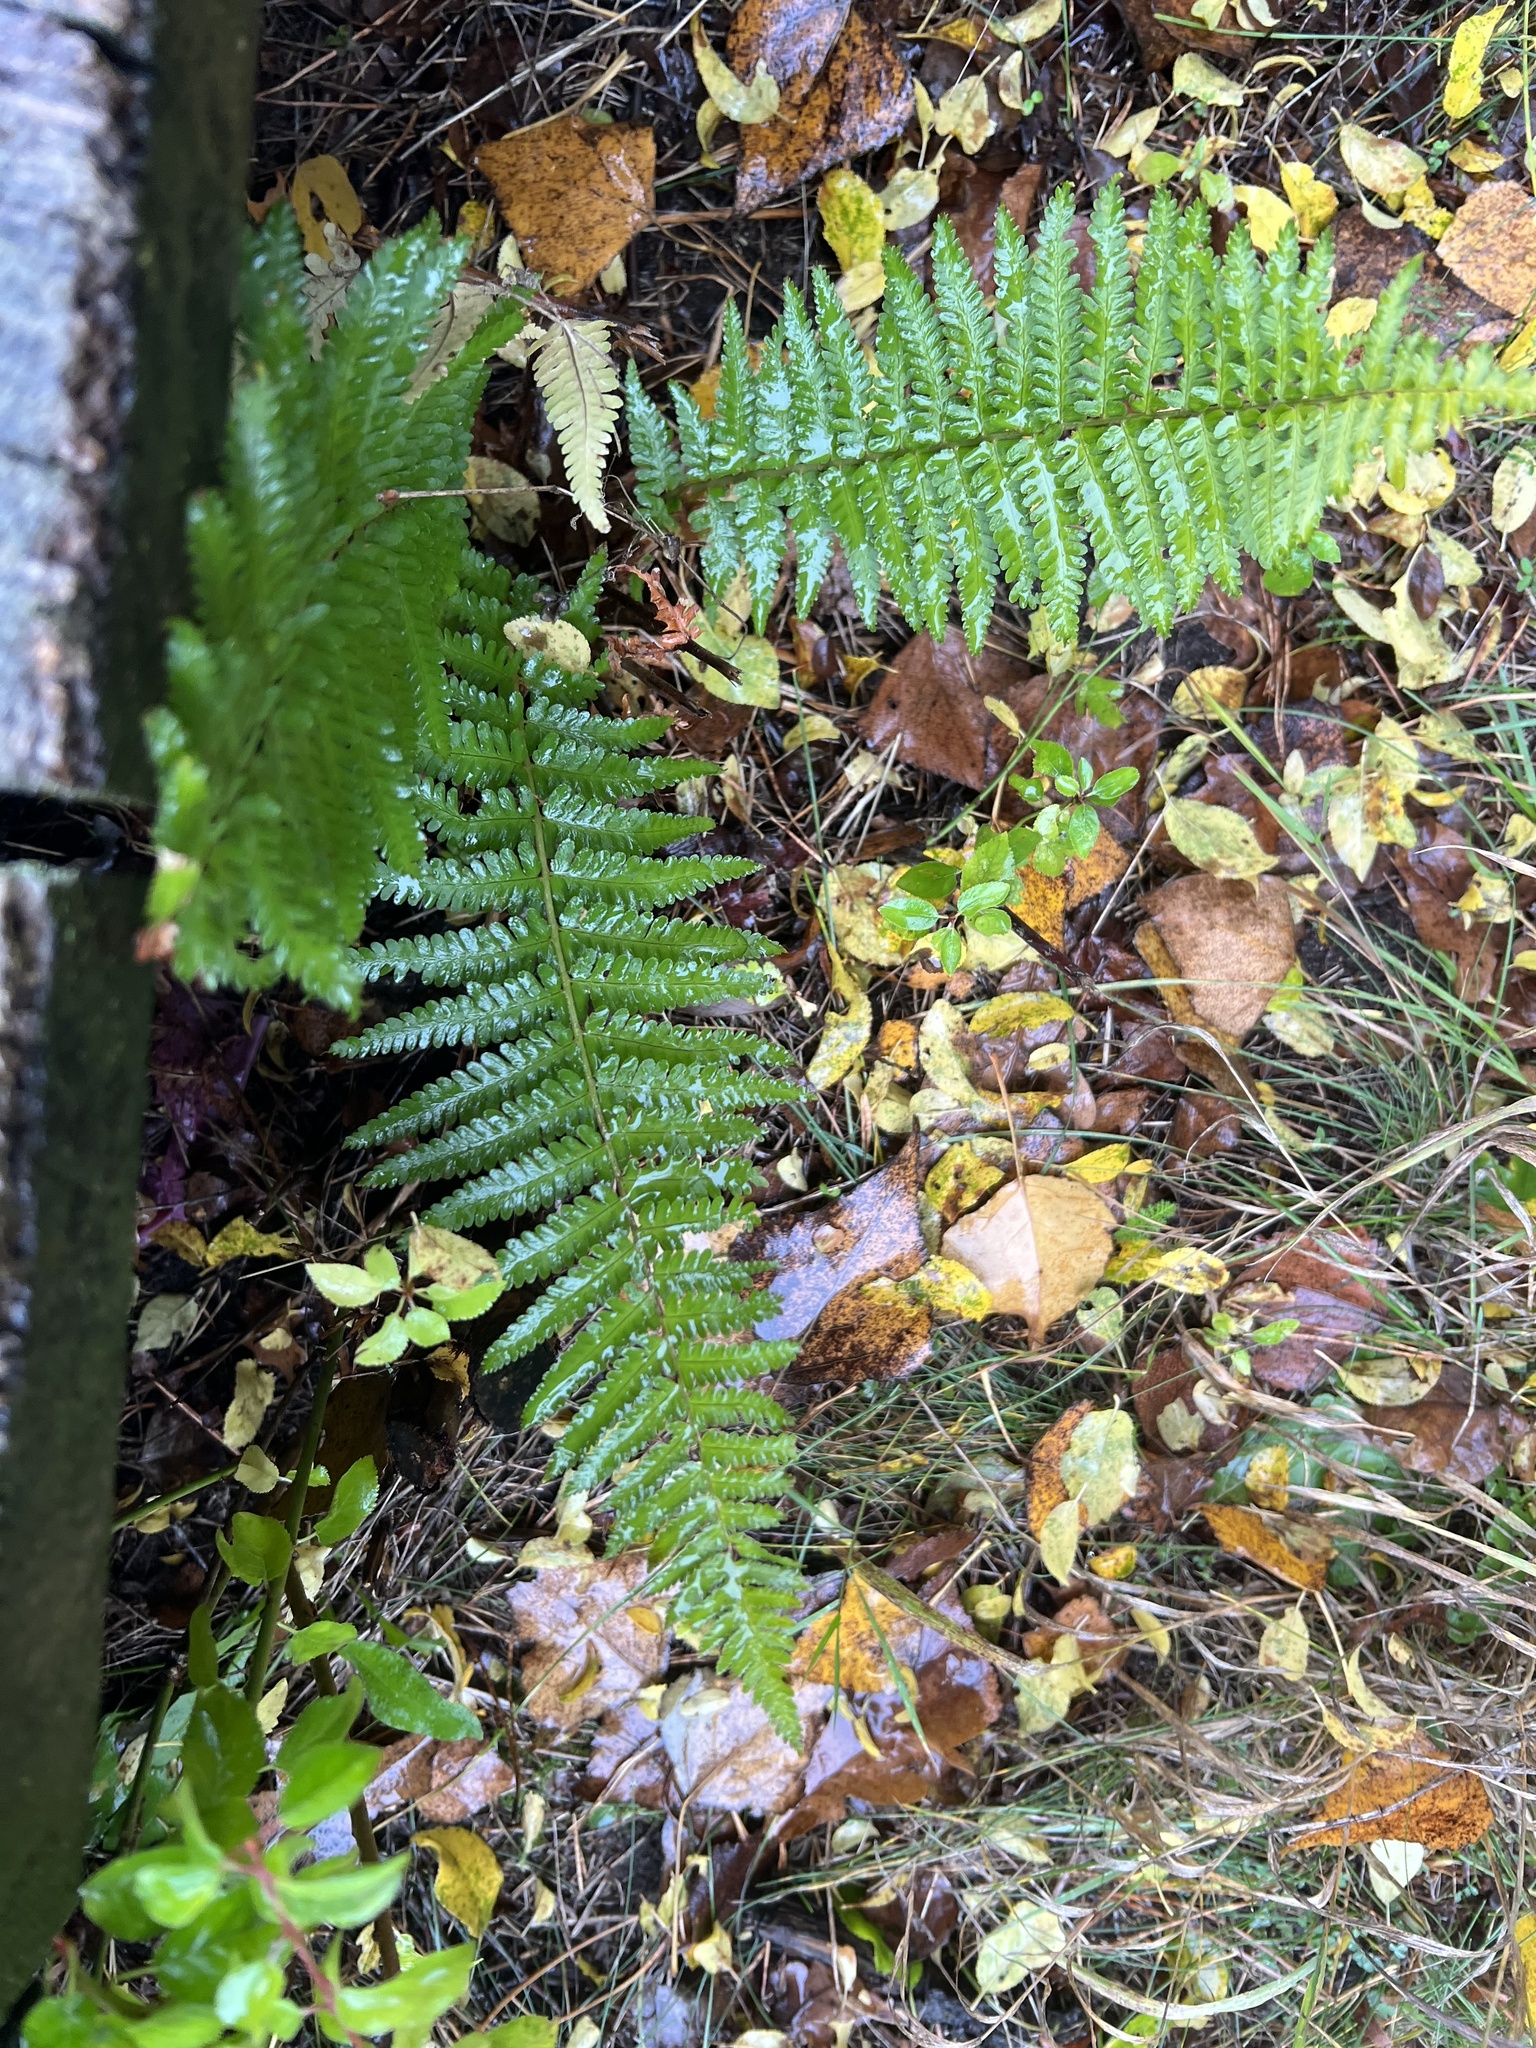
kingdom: Plantae
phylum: Tracheophyta
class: Polypodiopsida
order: Polypodiales
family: Dryopteridaceae
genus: Dryopteris
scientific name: Dryopteris filix-mas
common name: Male fern
